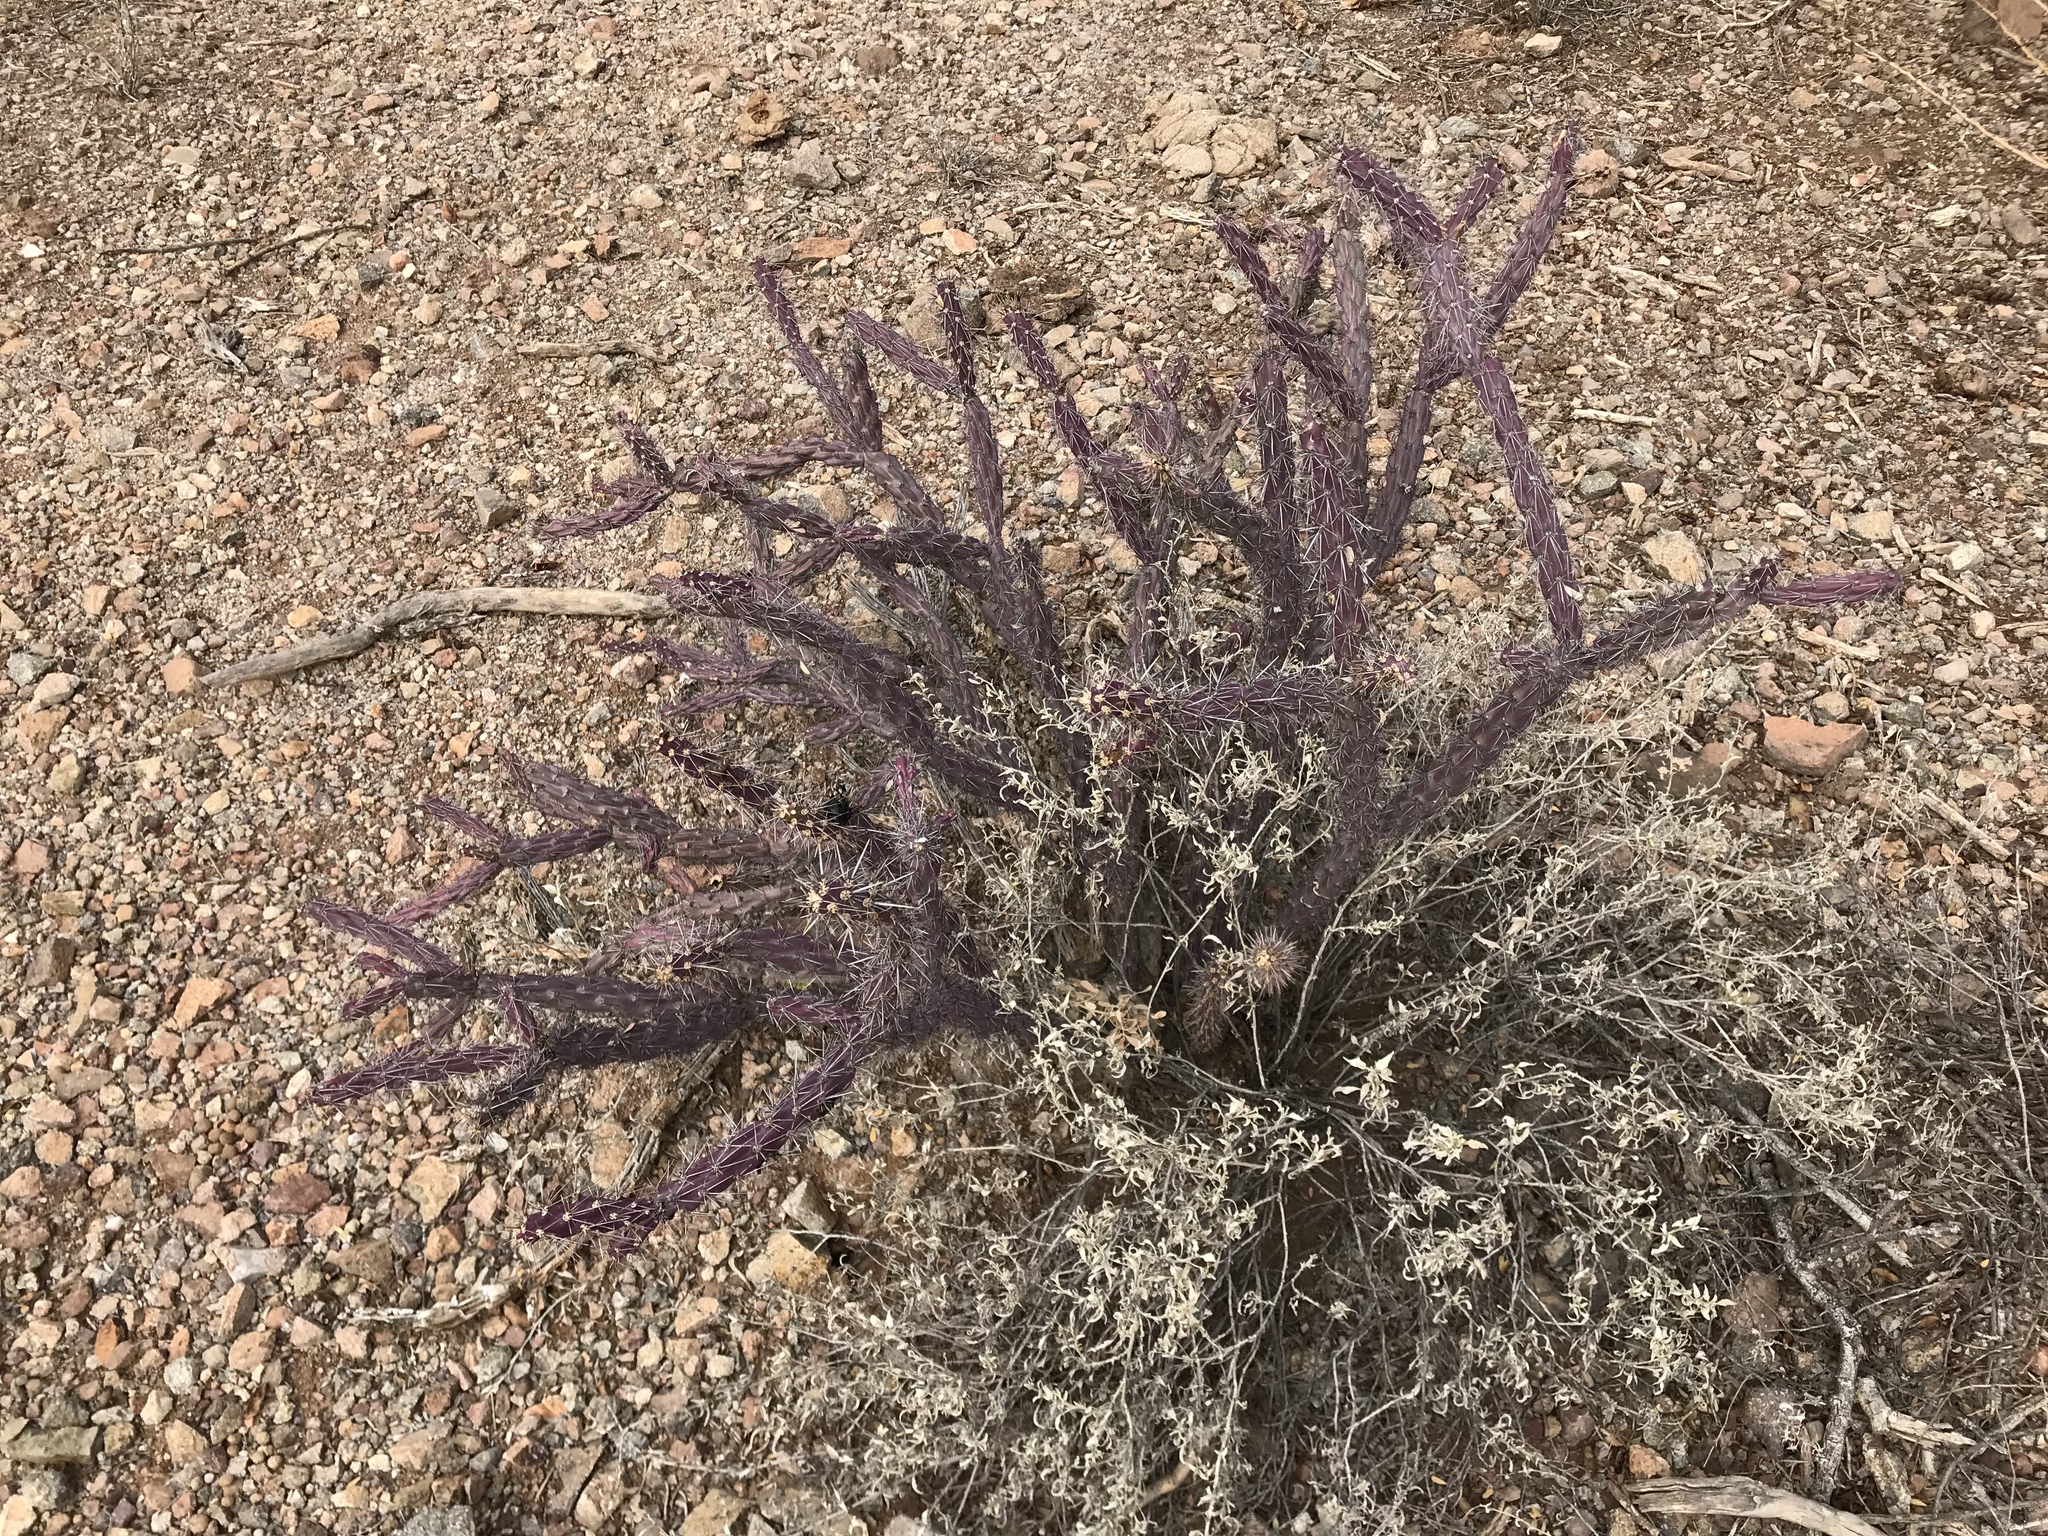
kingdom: Plantae
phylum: Tracheophyta
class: Magnoliopsida
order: Caryophyllales
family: Cactaceae
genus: Cylindropuntia
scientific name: Cylindropuntia thurberi
